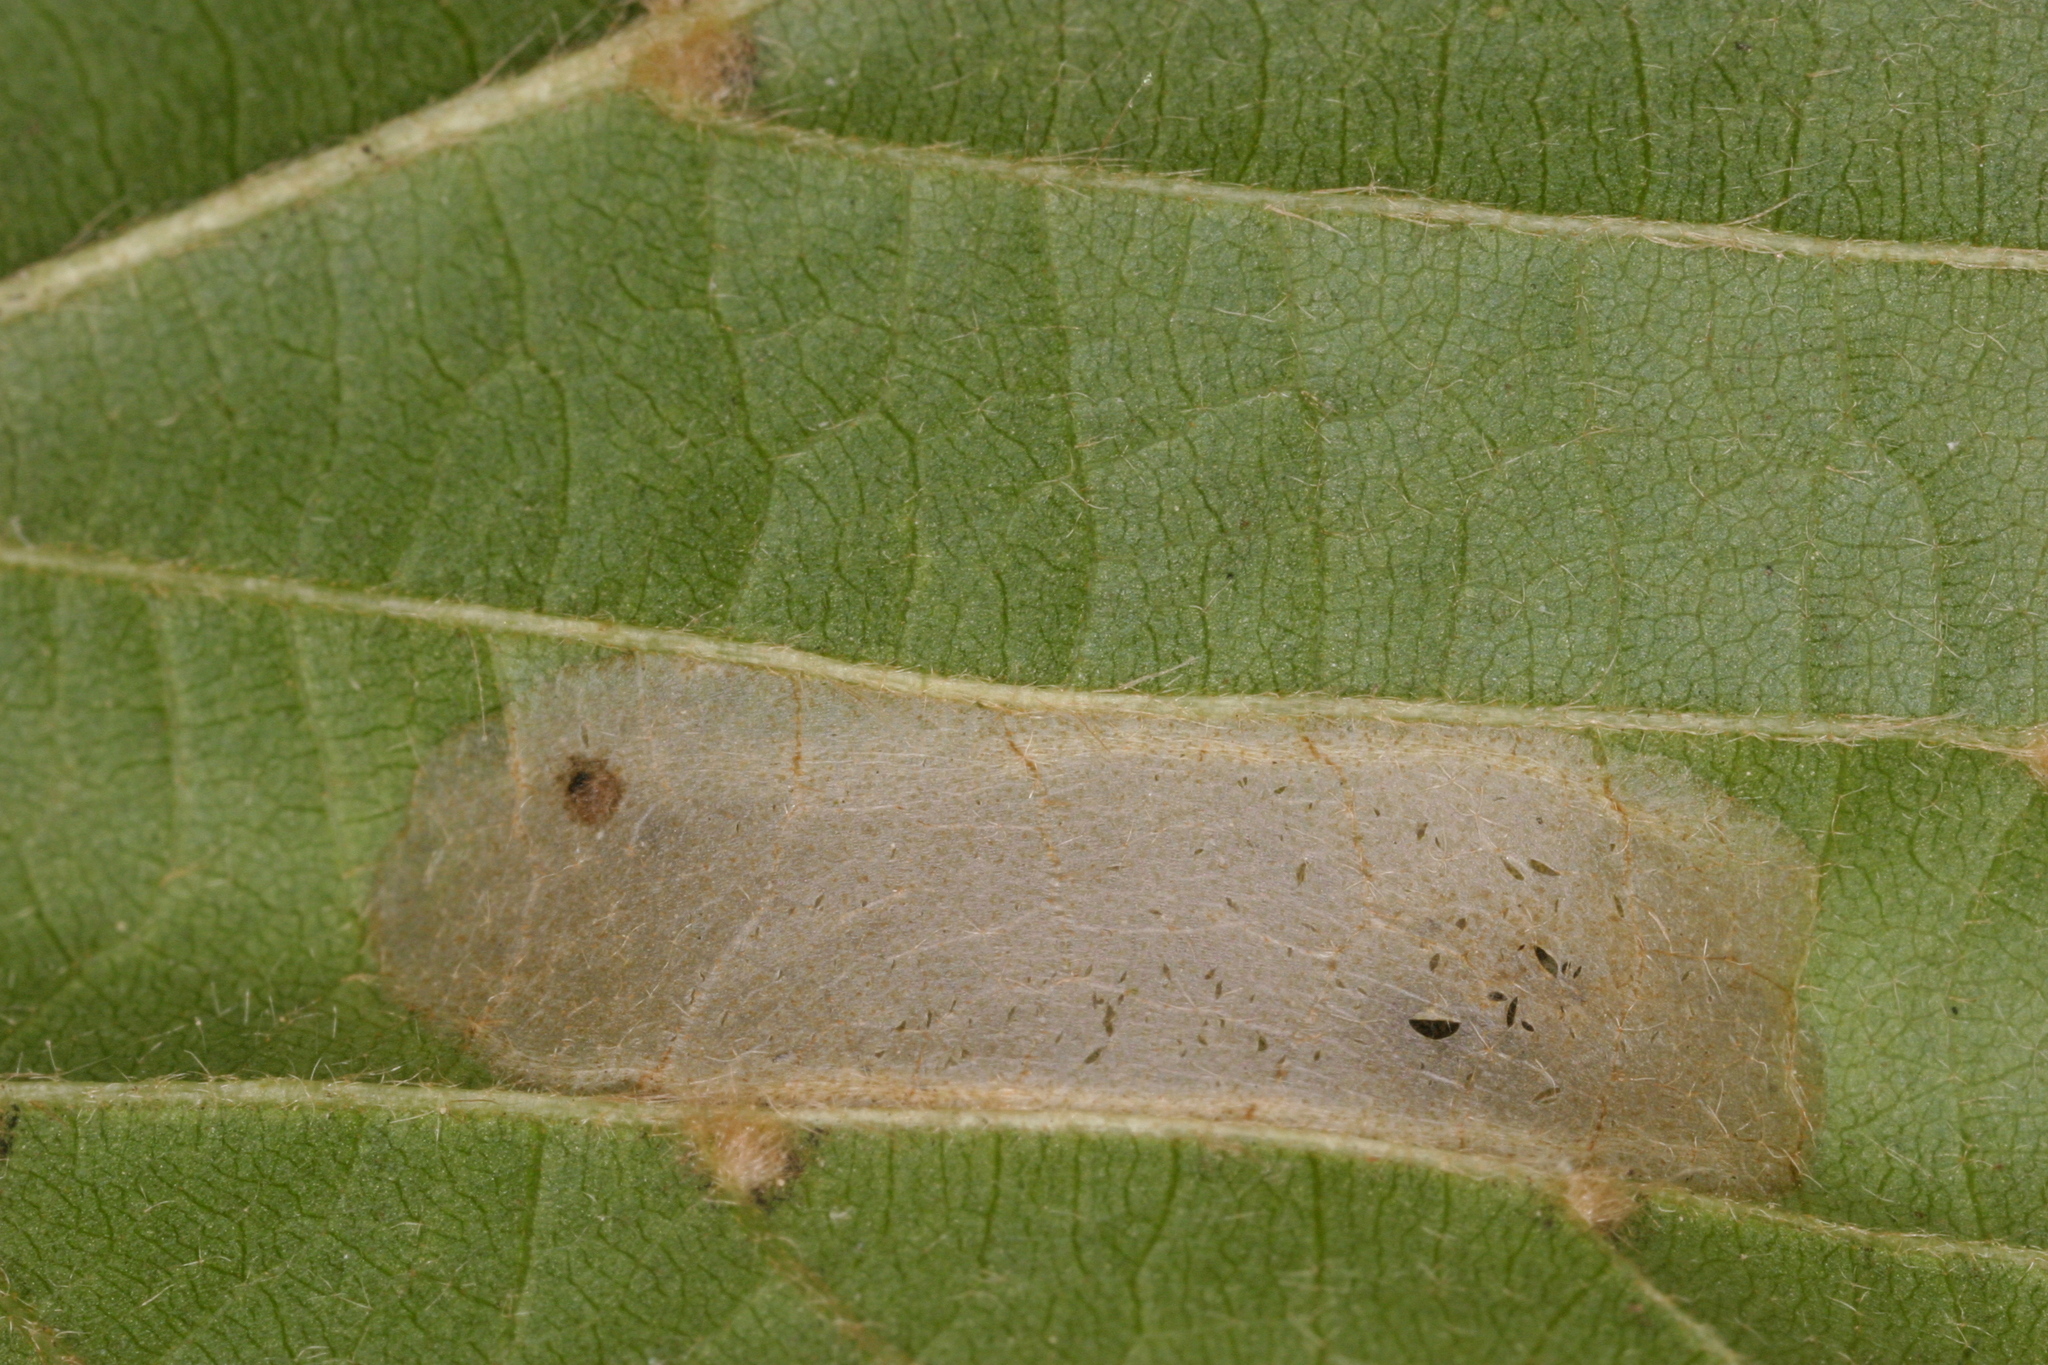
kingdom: Animalia
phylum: Arthropoda
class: Insecta
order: Lepidoptera
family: Gracillariidae
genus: Phyllonorycter
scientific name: Phyllonorycter issikii
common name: Linden midget
